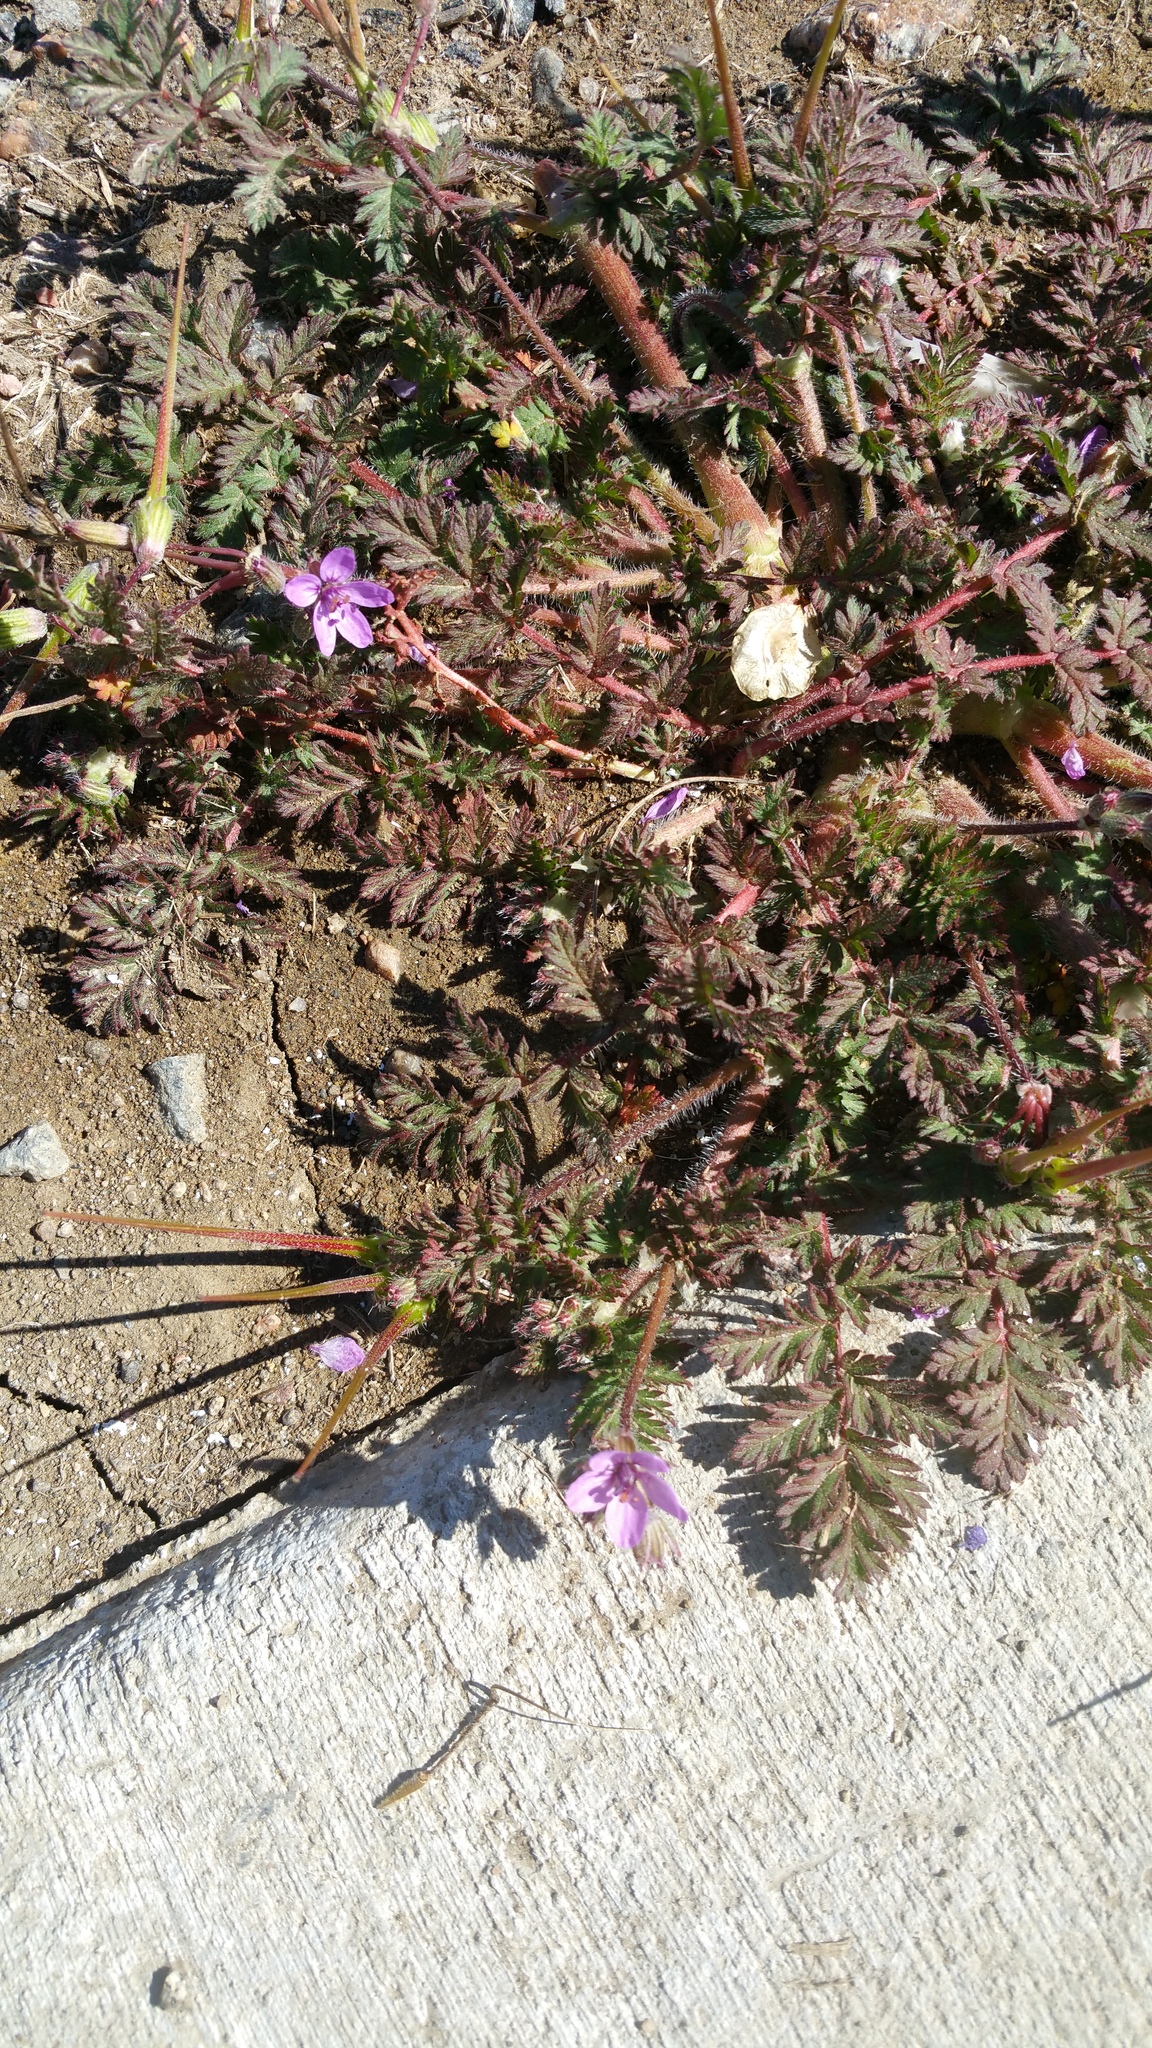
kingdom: Plantae
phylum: Tracheophyta
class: Magnoliopsida
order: Geraniales
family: Geraniaceae
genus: Erodium
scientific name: Erodium cicutarium
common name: Common stork's-bill
